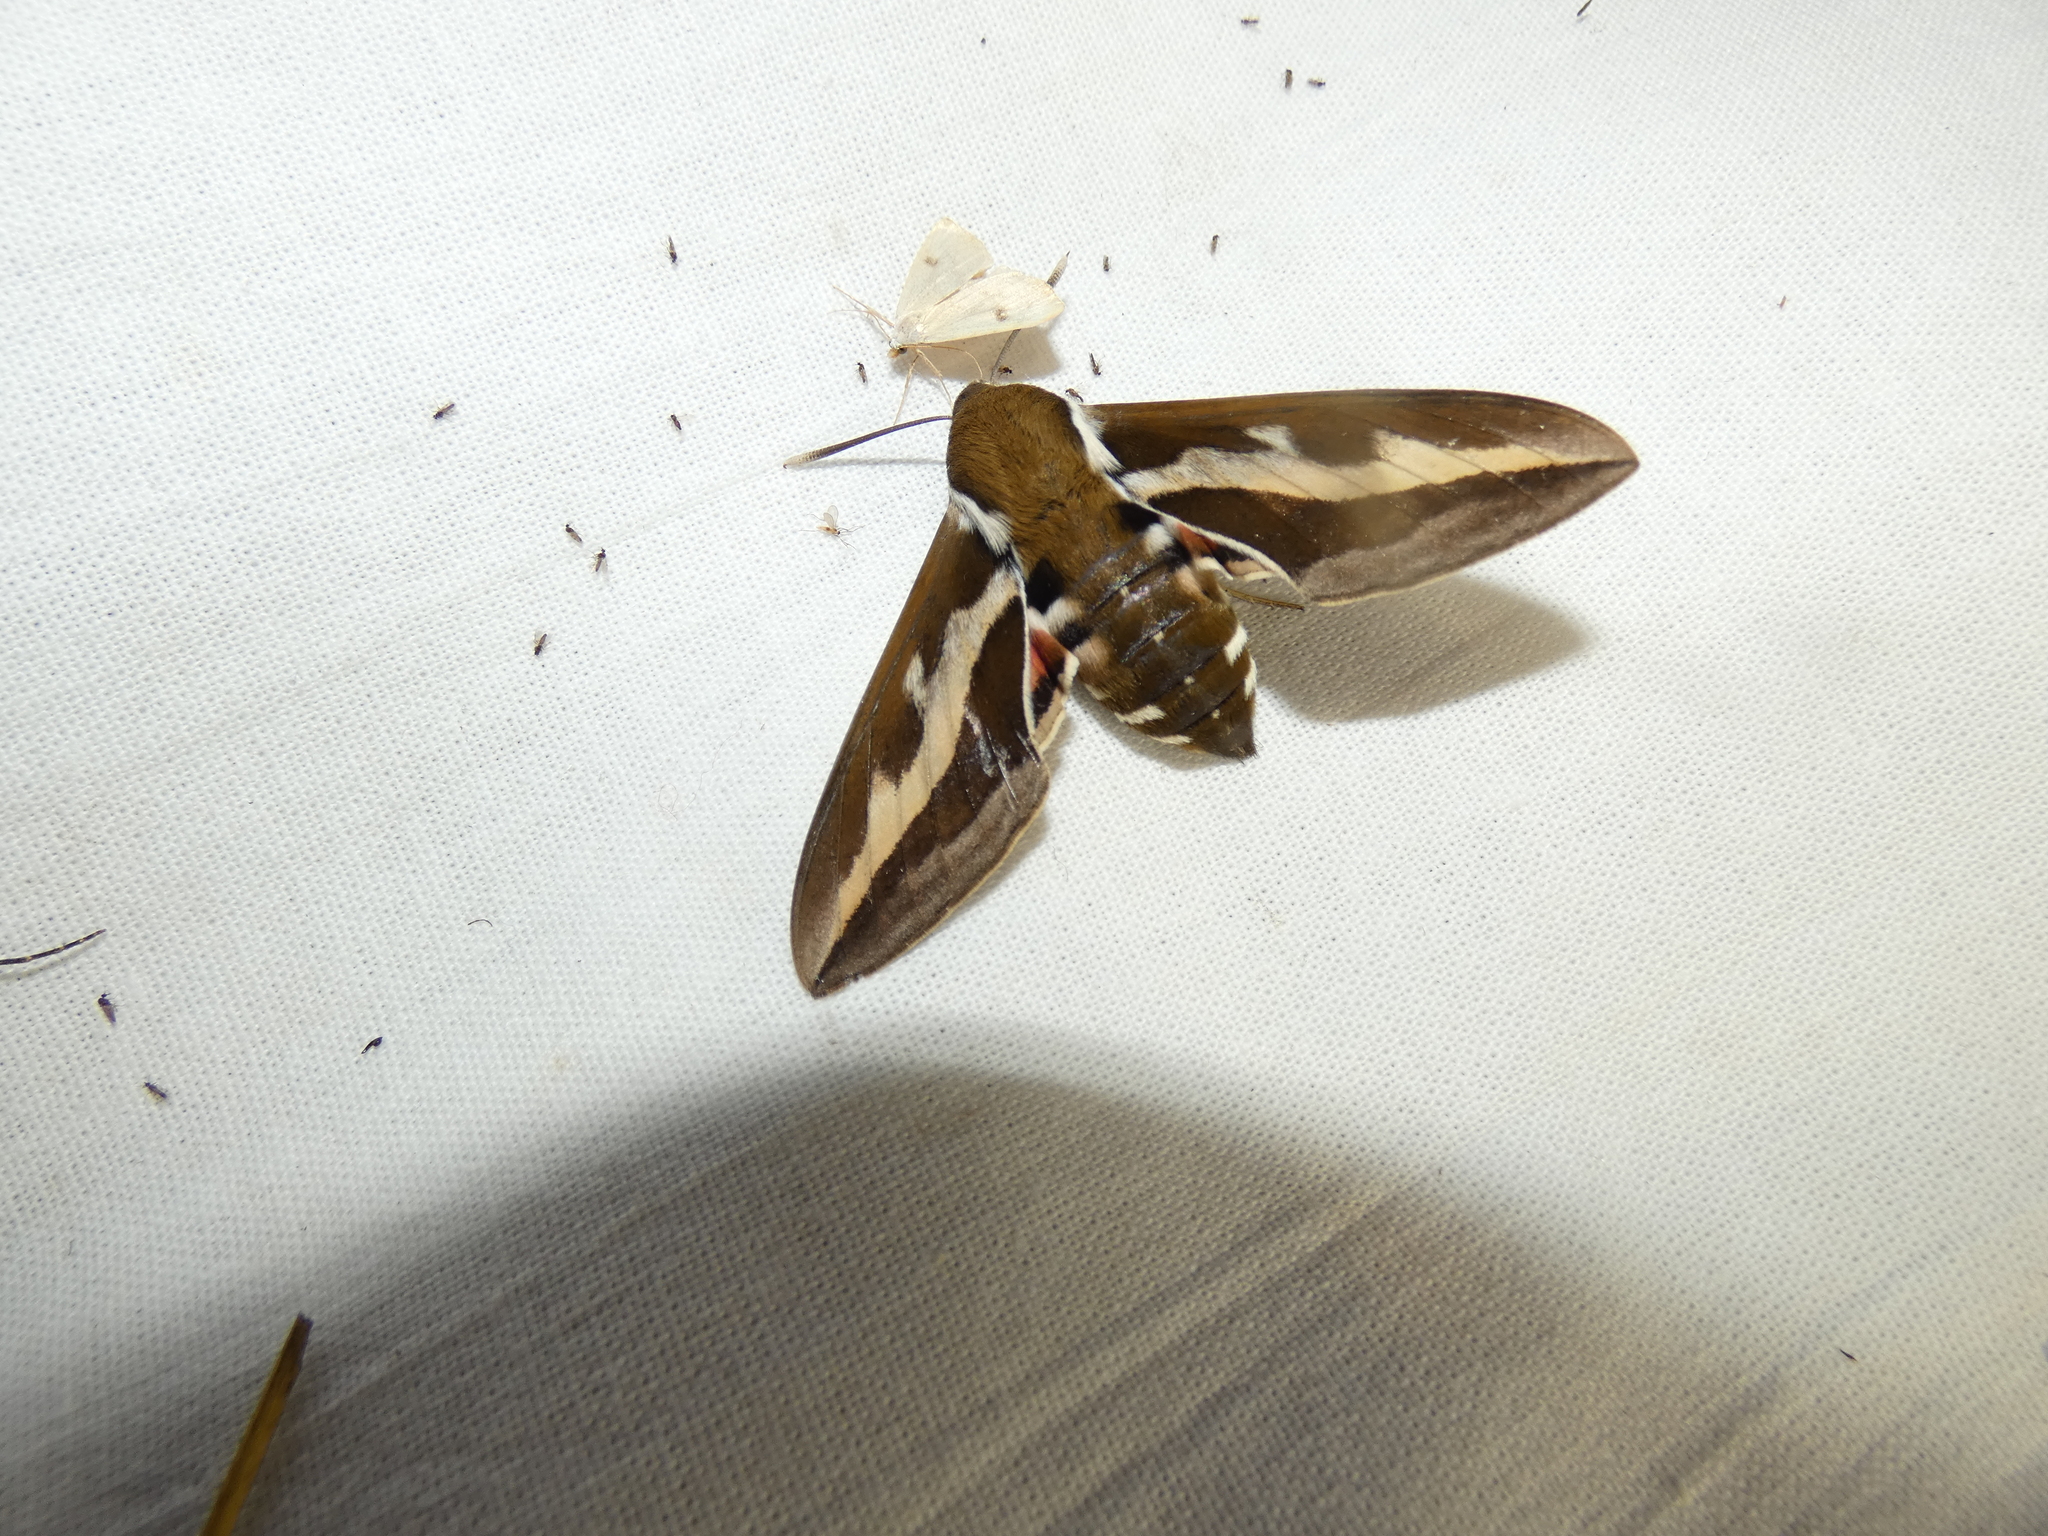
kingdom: Animalia
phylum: Arthropoda
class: Insecta
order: Lepidoptera
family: Sphingidae
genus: Hyles
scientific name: Hyles gallii
